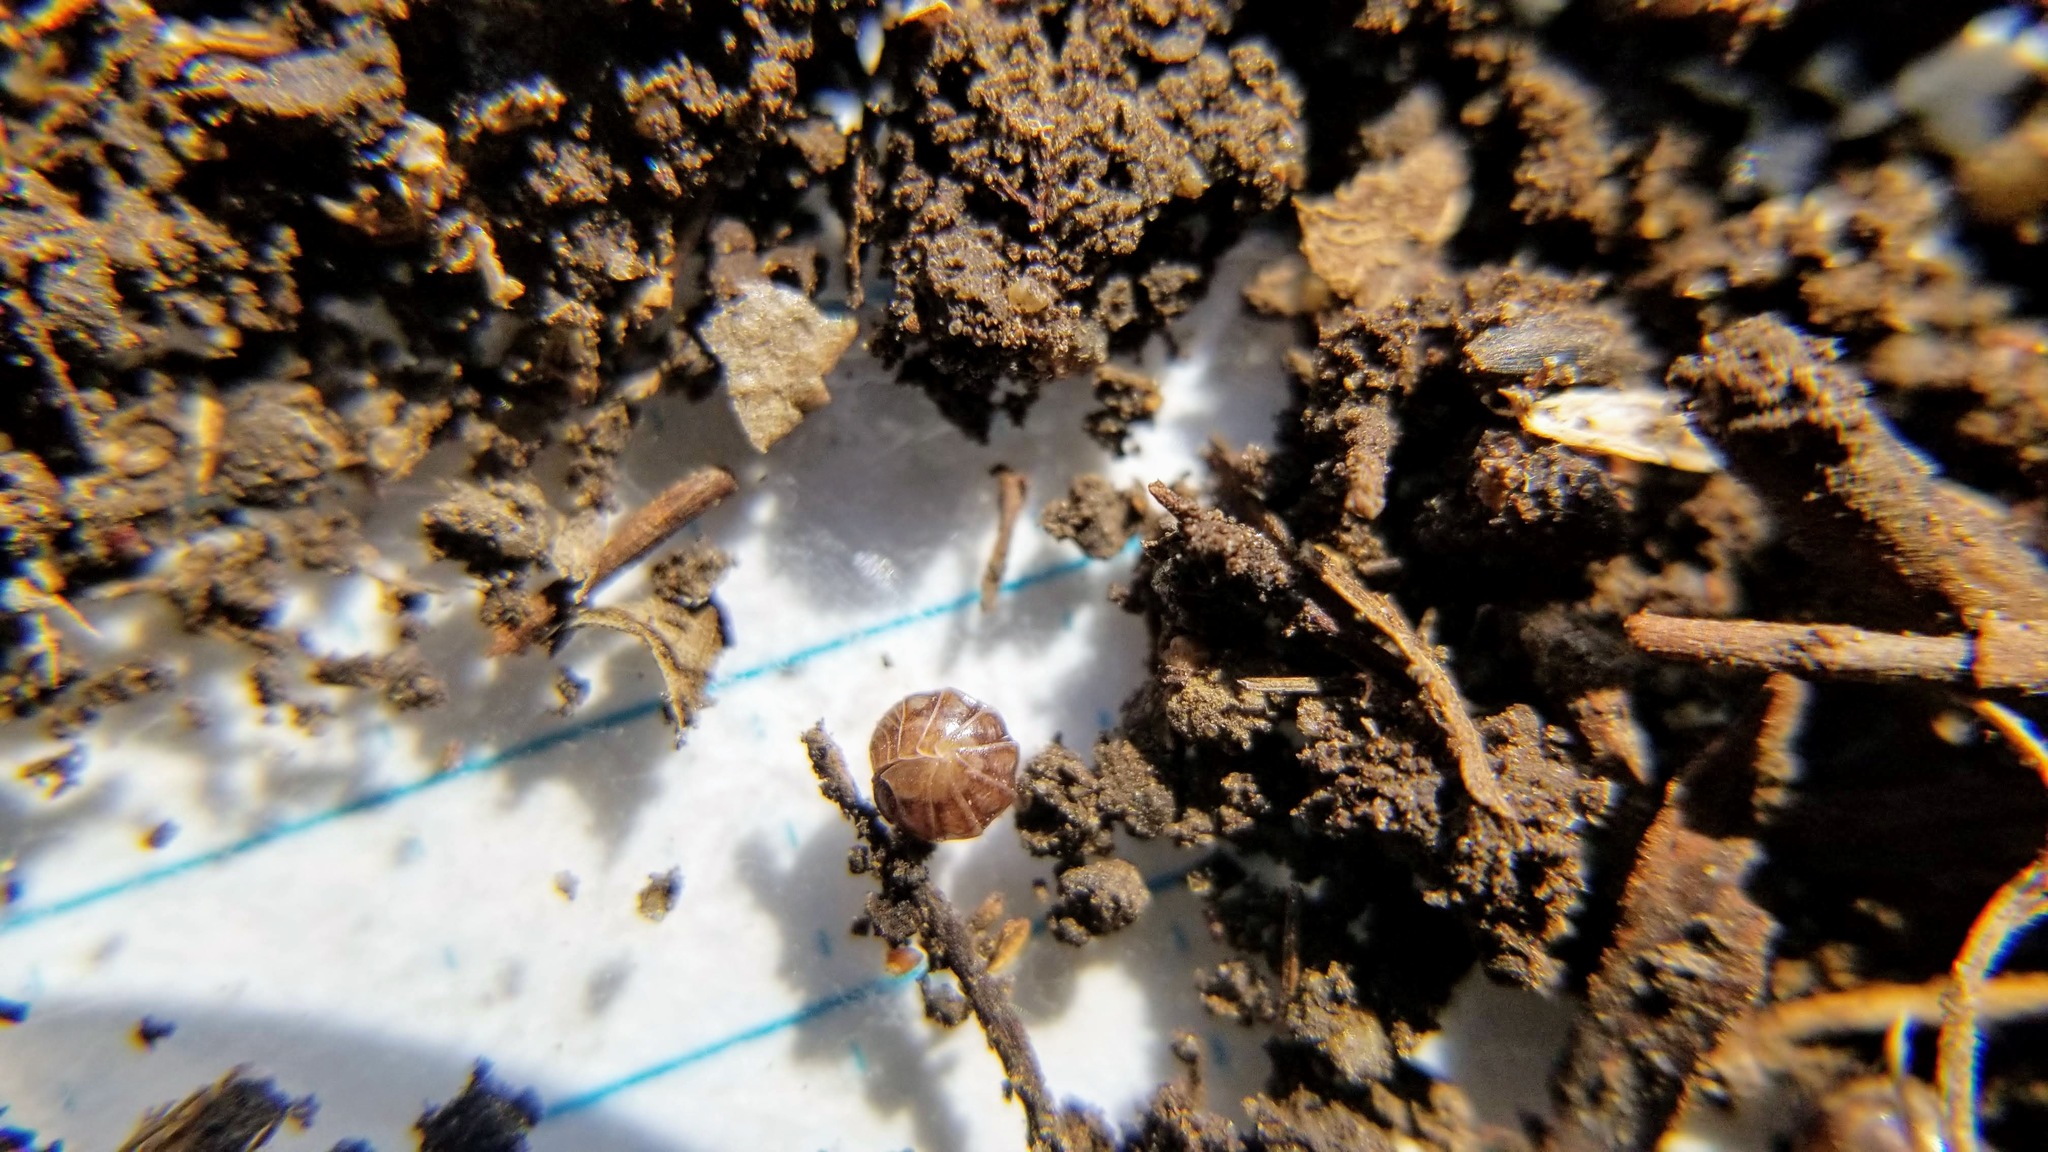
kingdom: Animalia
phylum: Arthropoda
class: Malacostraca
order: Isopoda
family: Armadillidiidae
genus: Armadillidium
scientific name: Armadillidium vulgare
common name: Common pill woodlouse
